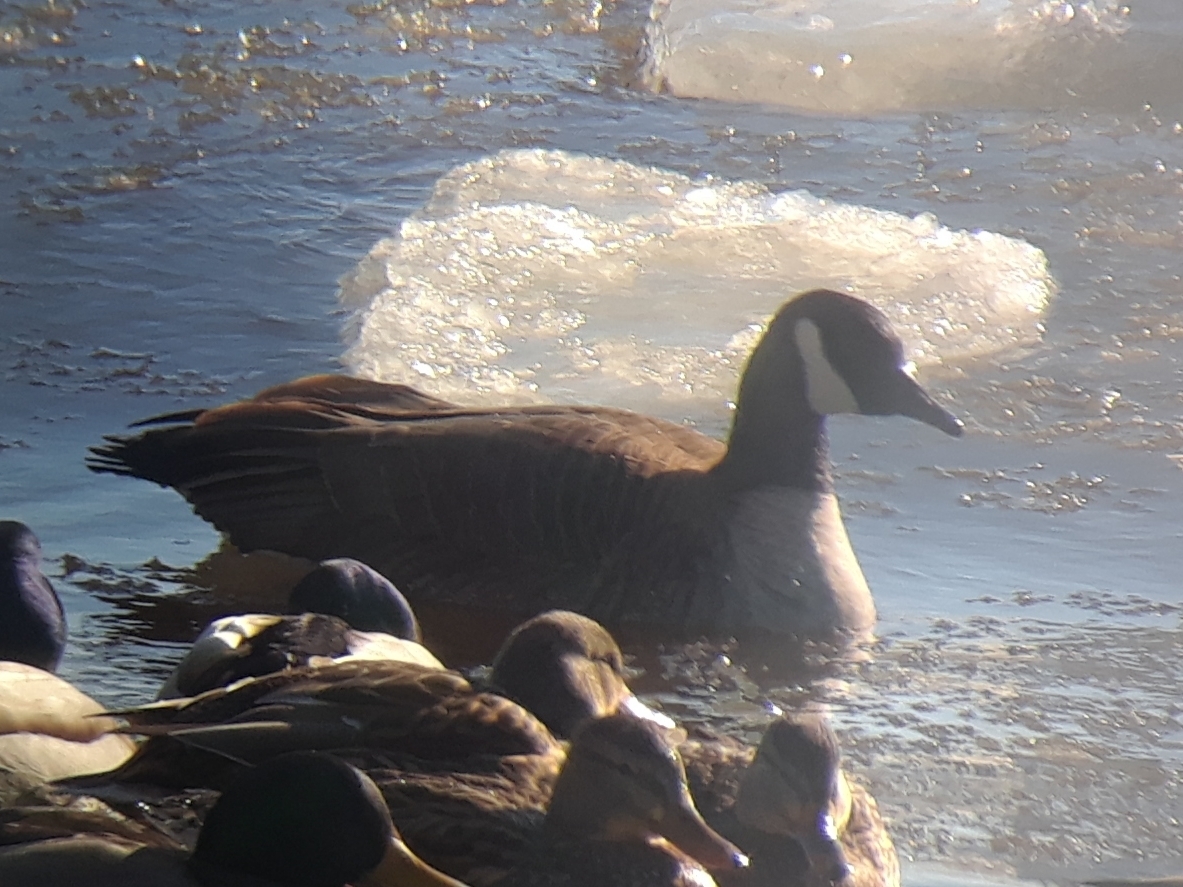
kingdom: Animalia
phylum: Chordata
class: Aves
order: Anseriformes
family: Anatidae
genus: Branta
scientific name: Branta canadensis
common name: Canada goose
